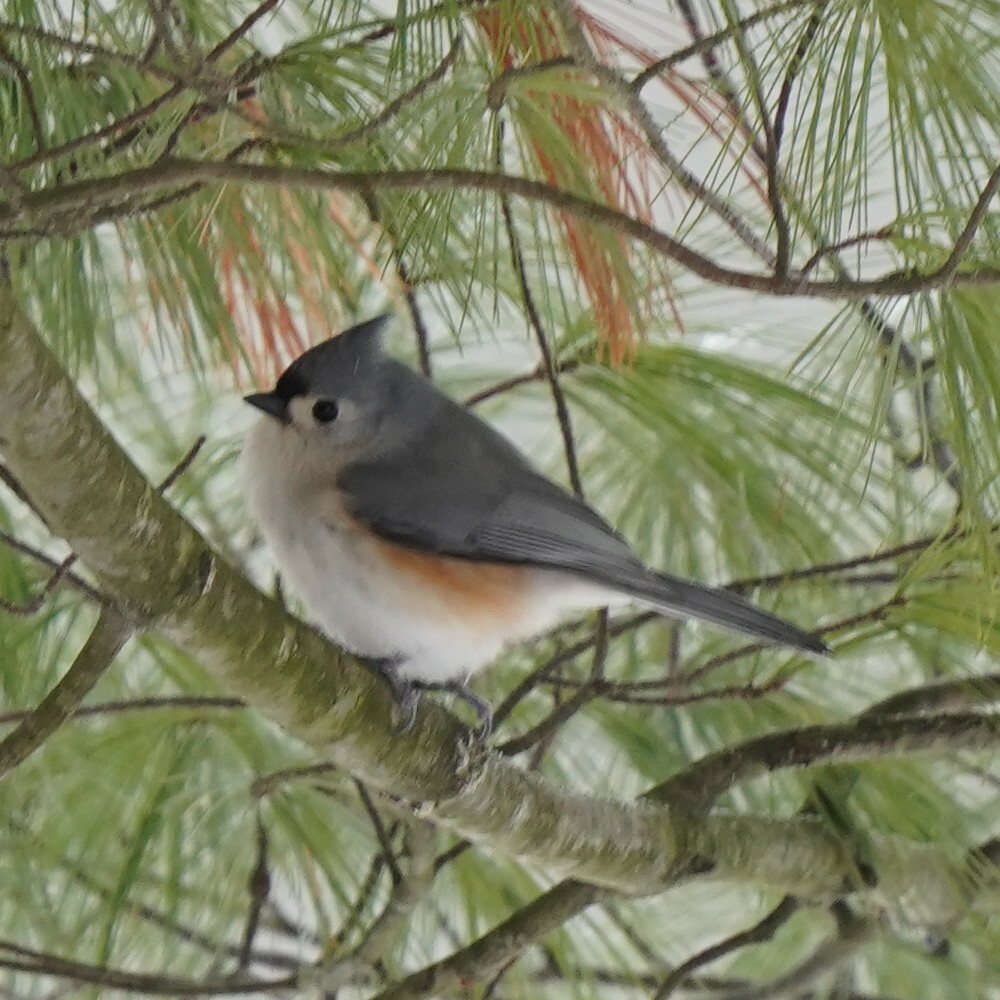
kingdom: Animalia
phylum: Chordata
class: Aves
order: Passeriformes
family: Paridae
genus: Baeolophus
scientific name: Baeolophus bicolor
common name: Tufted titmouse
